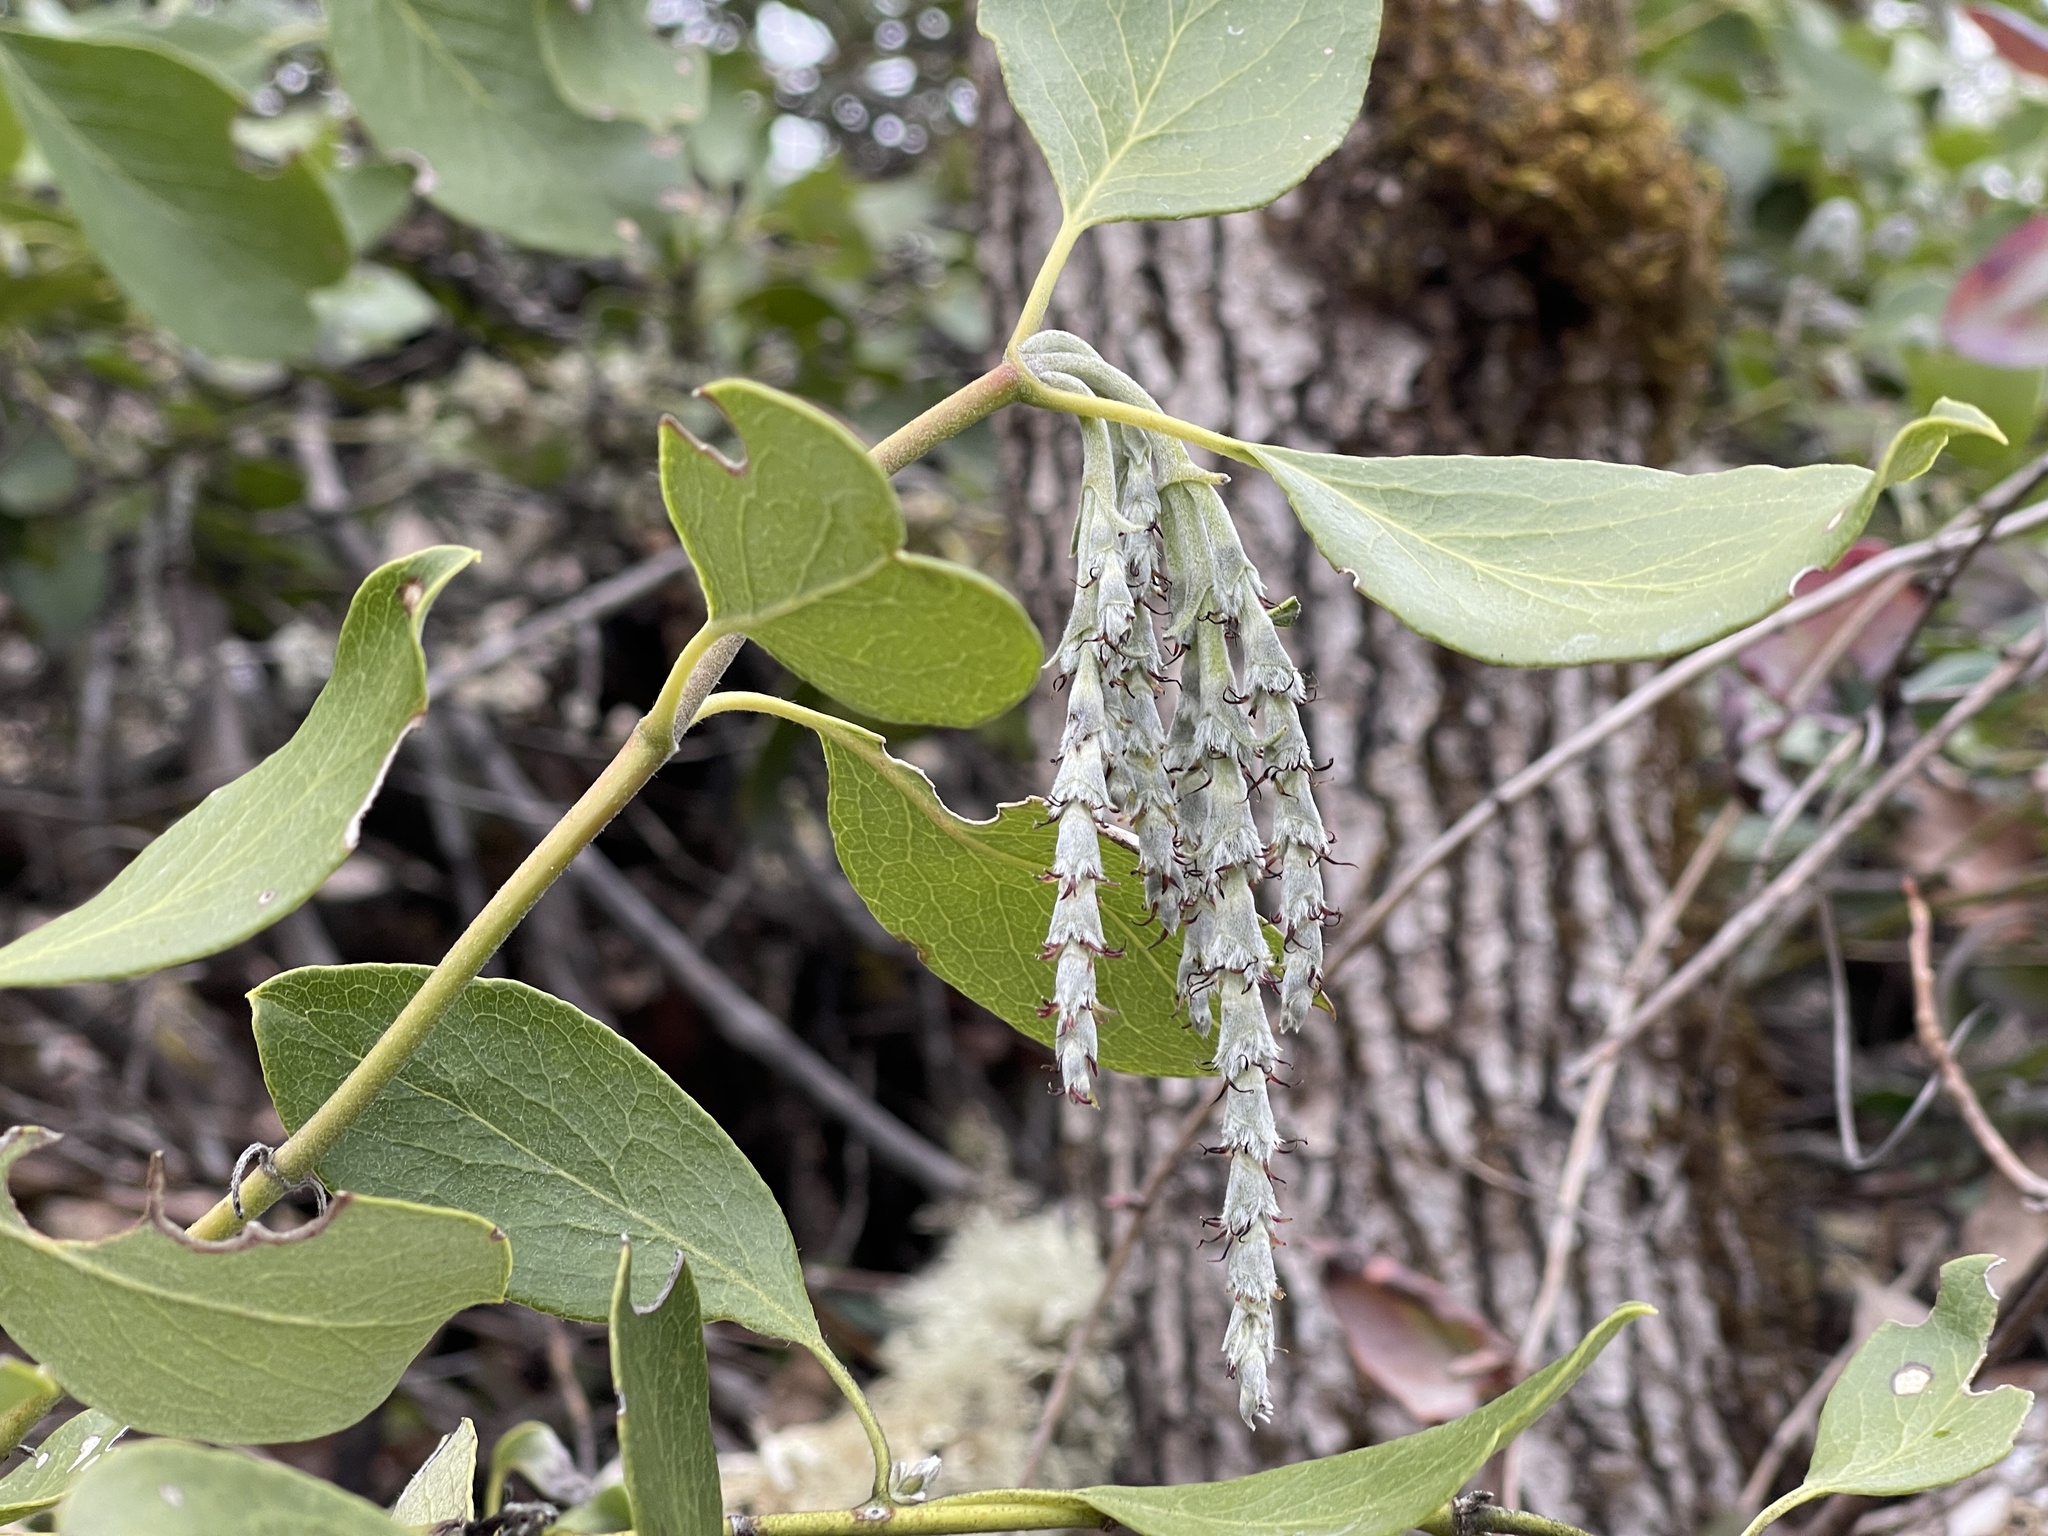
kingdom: Plantae
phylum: Tracheophyta
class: Magnoliopsida
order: Garryales
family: Garryaceae
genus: Garrya
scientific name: Garrya fremontii
